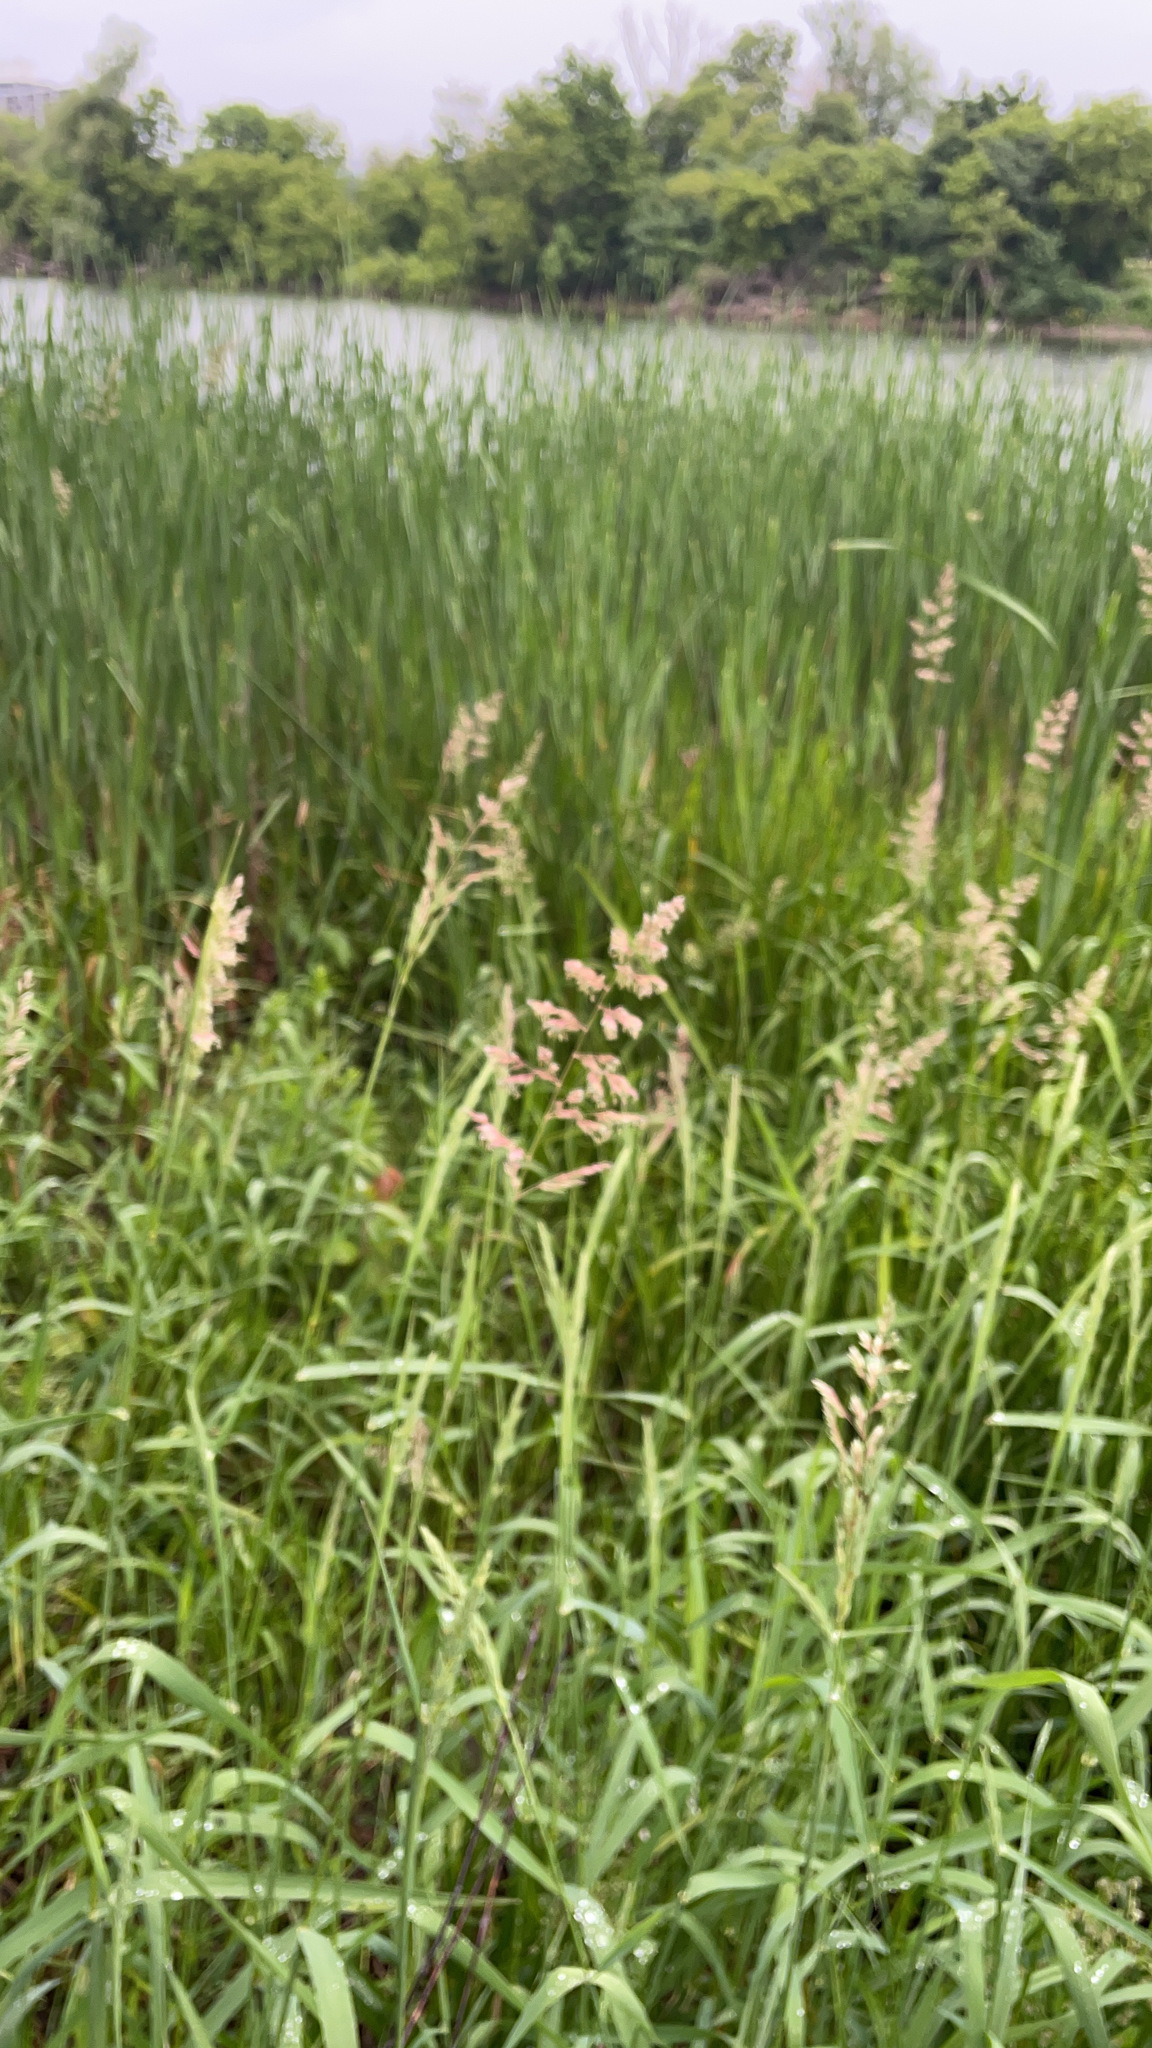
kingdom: Plantae
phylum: Tracheophyta
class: Liliopsida
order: Poales
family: Poaceae
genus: Phalaris
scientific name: Phalaris arundinacea
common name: Reed canary-grass
